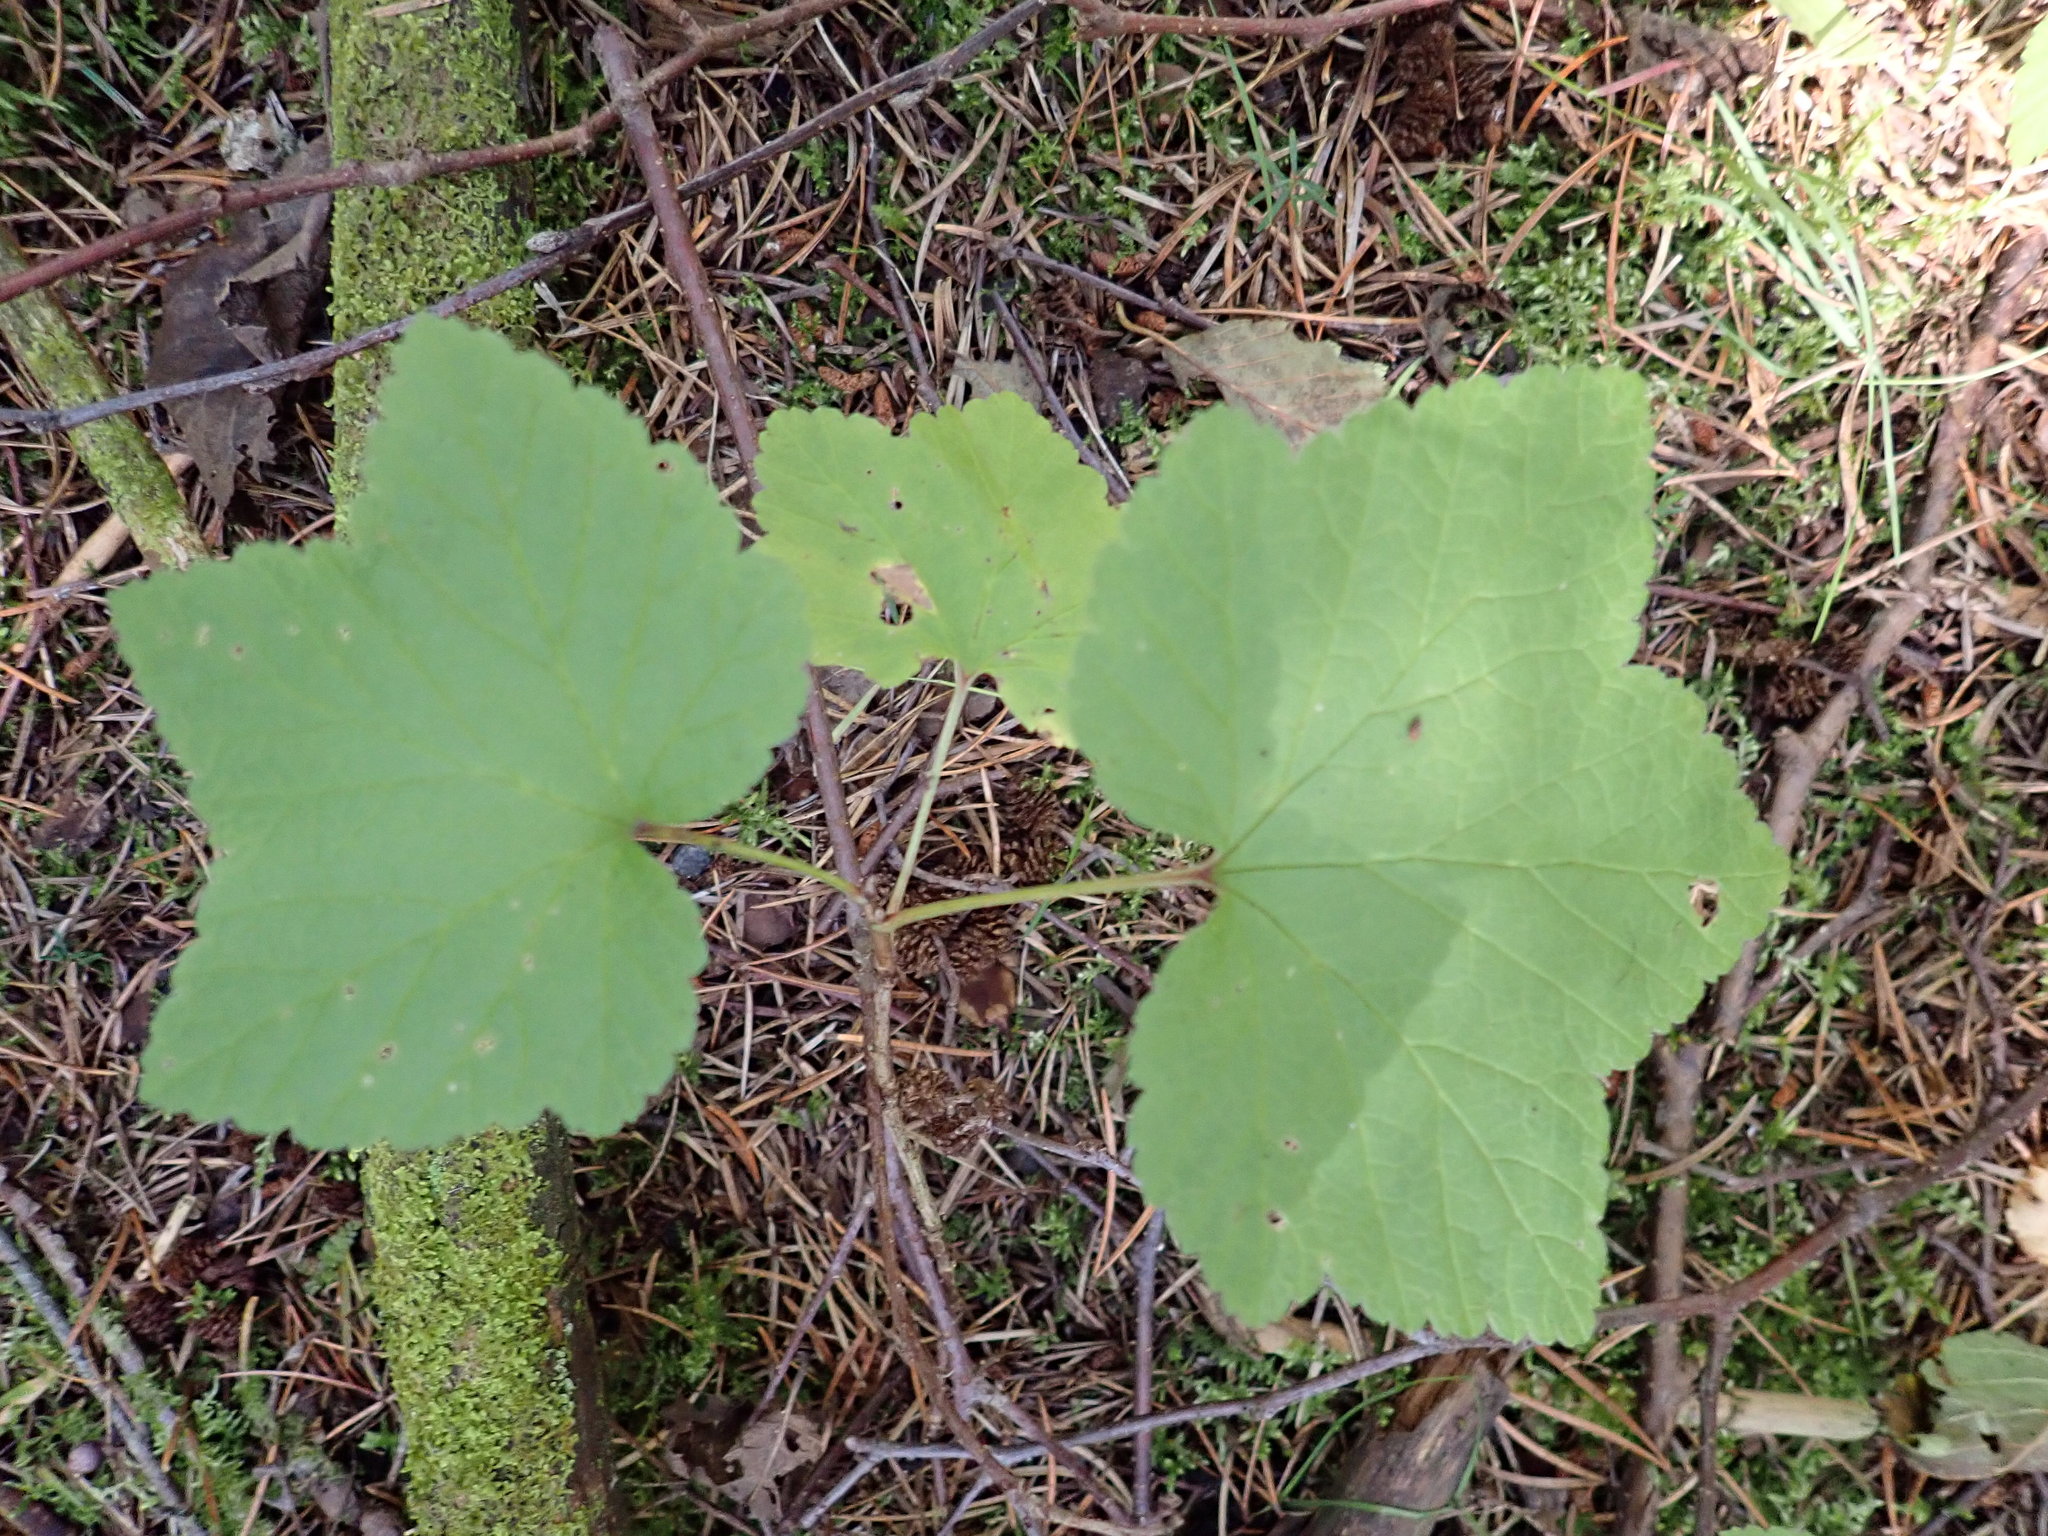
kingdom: Plantae
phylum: Tracheophyta
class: Magnoliopsida
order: Saxifragales
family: Grossulariaceae
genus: Ribes
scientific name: Ribes triste
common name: Swamp red currant
